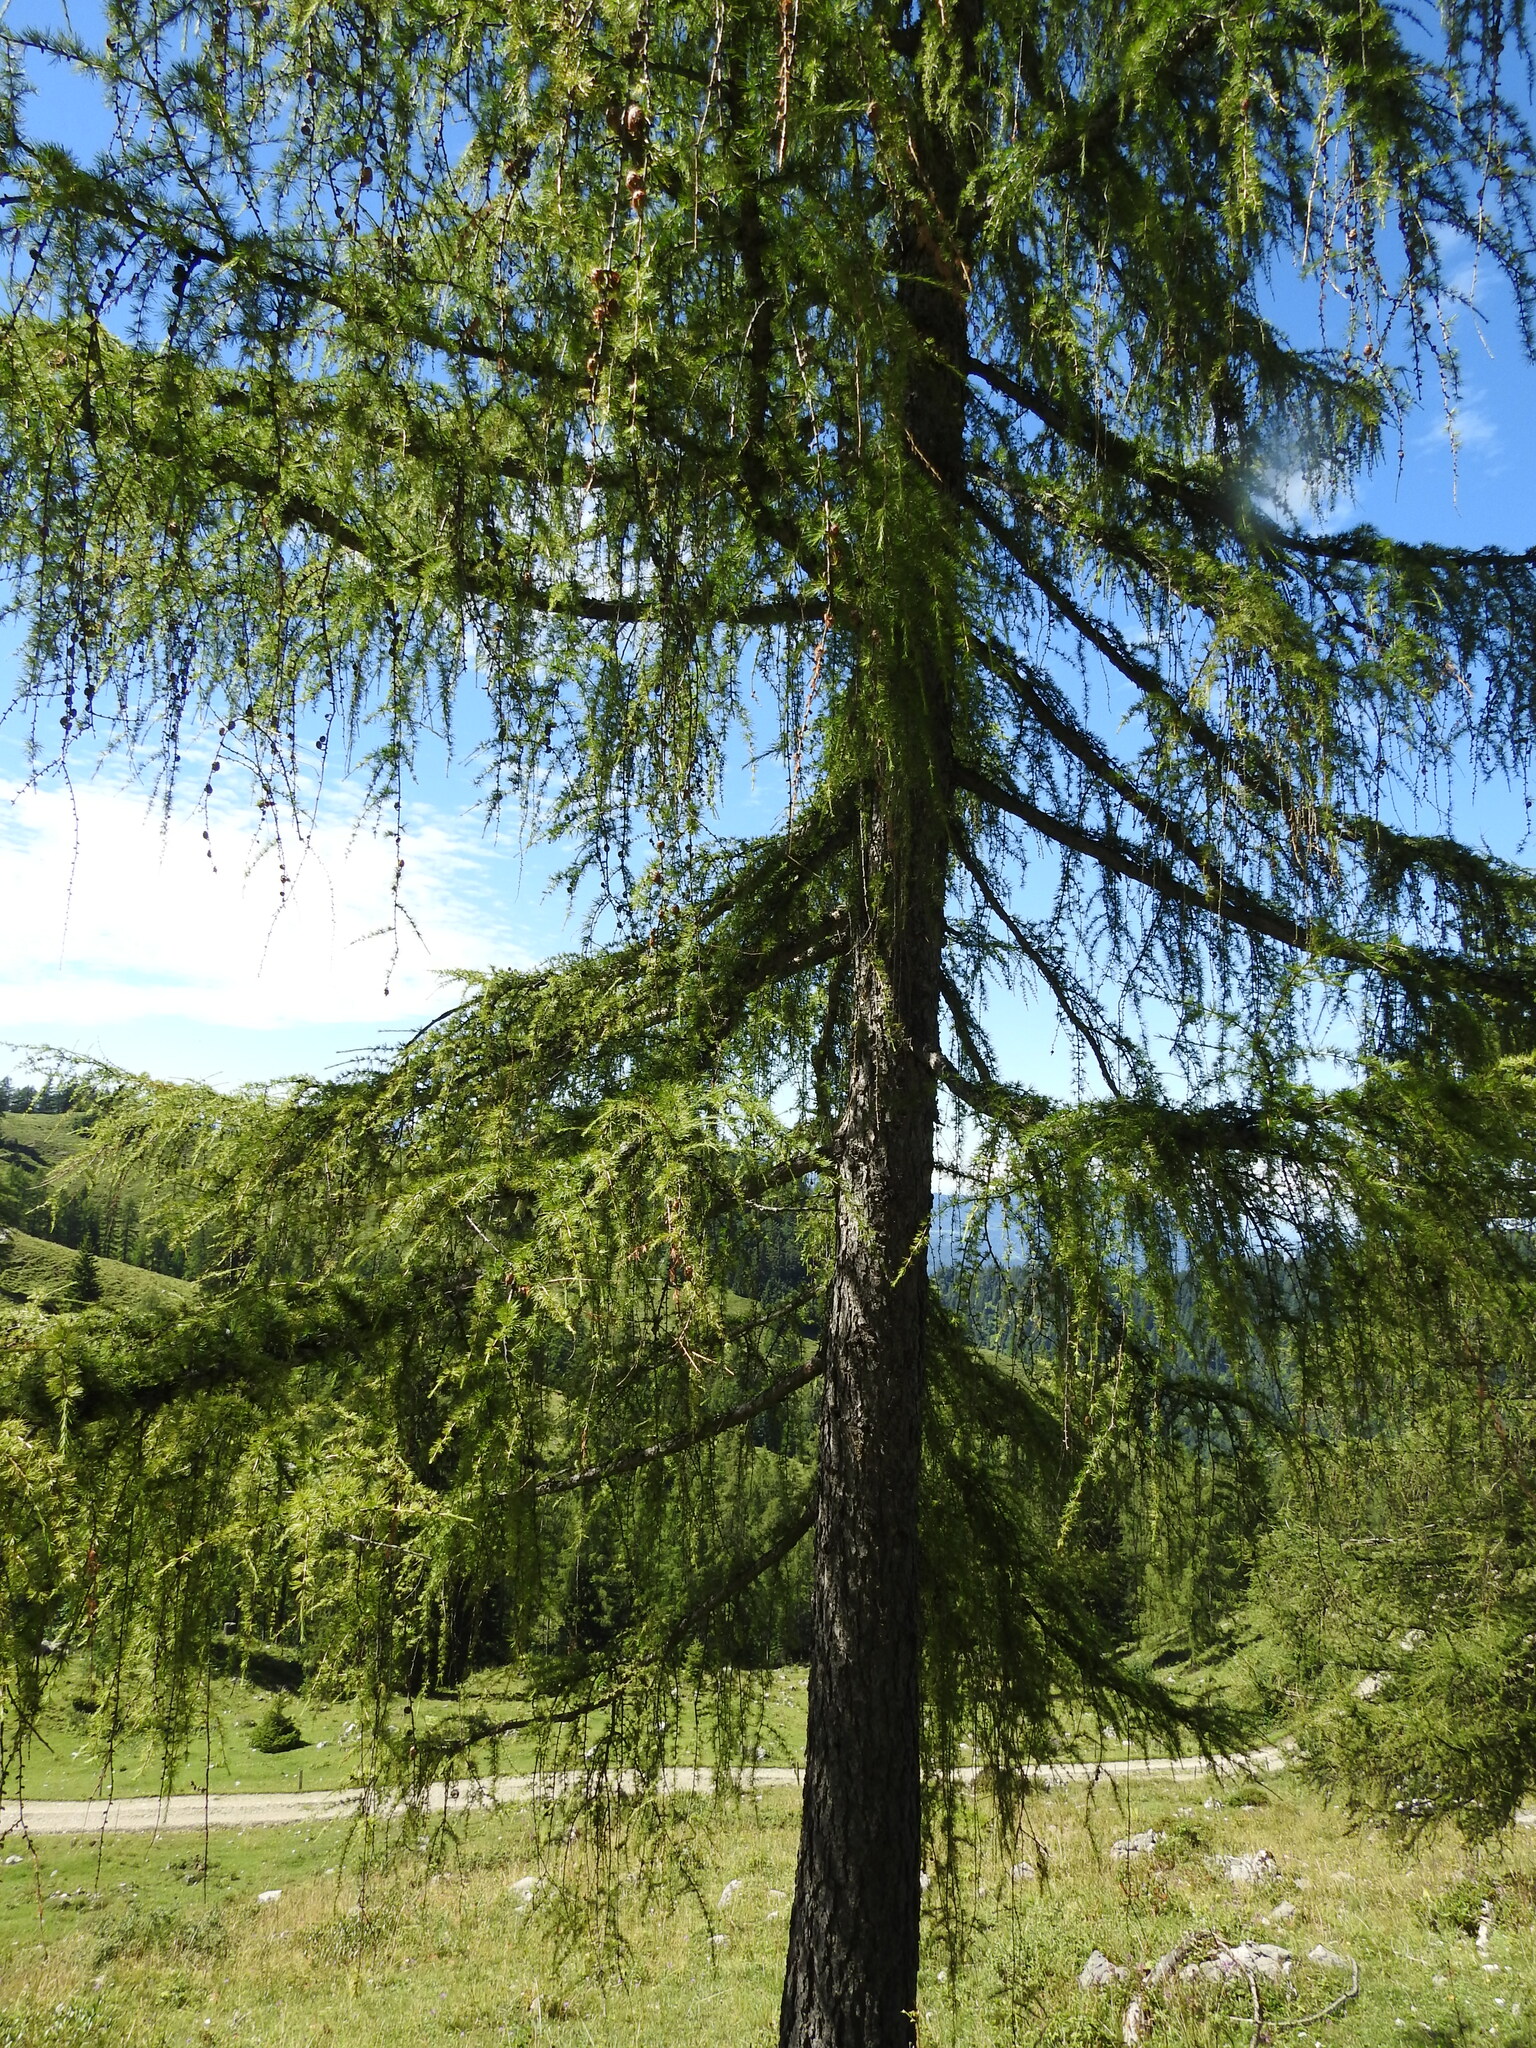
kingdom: Plantae
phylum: Tracheophyta
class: Pinopsida
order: Pinales
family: Pinaceae
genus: Larix
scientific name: Larix decidua
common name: European larch
